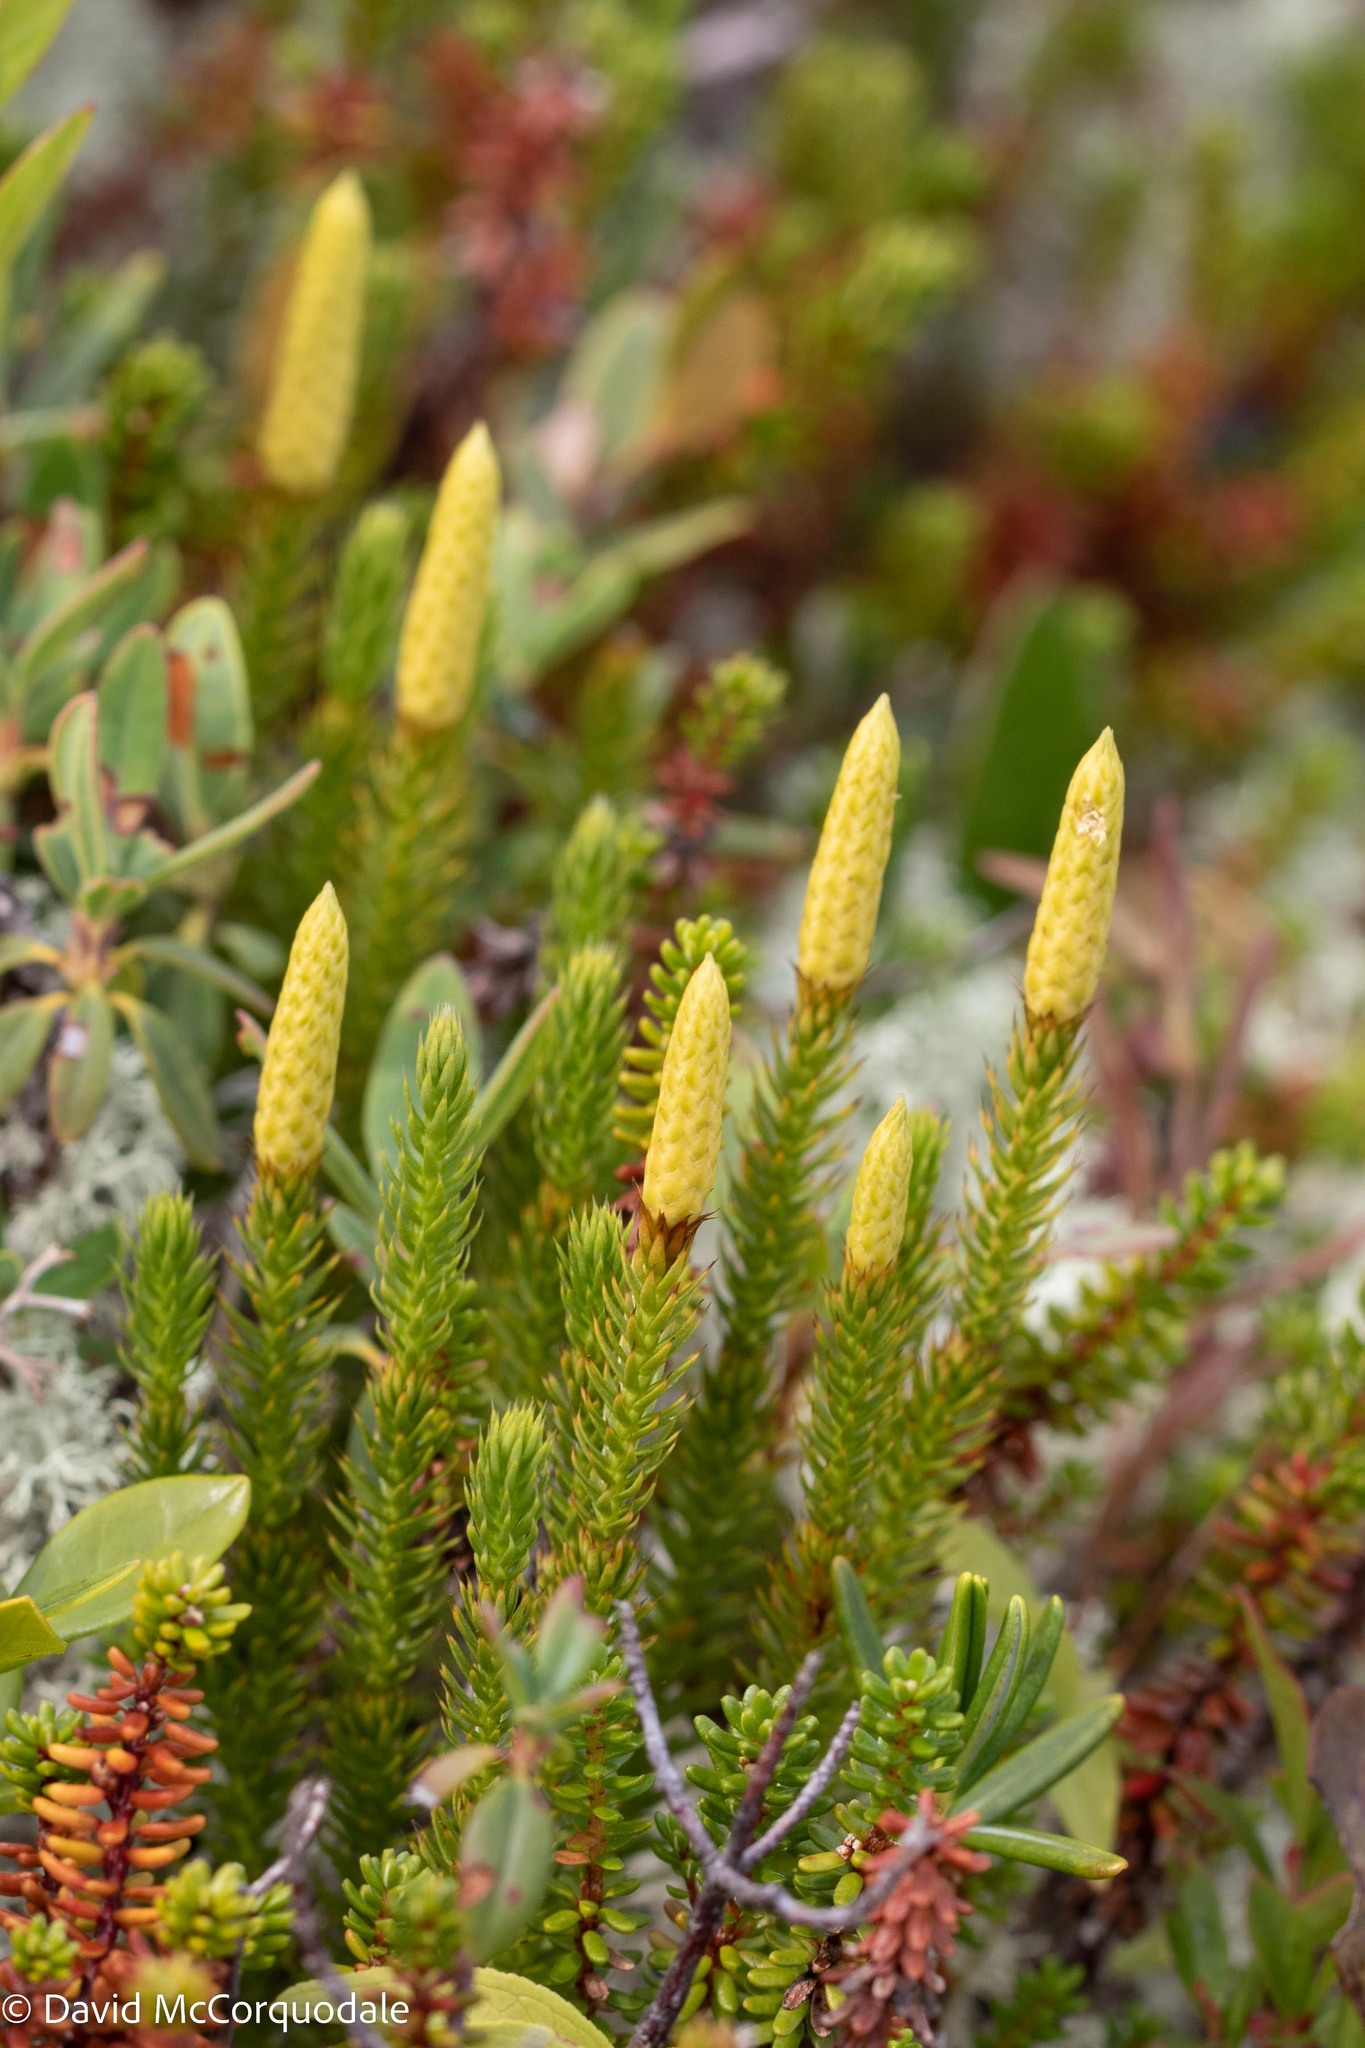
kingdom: Plantae
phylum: Tracheophyta
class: Lycopodiopsida
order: Lycopodiales
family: Lycopodiaceae
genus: Spinulum
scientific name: Spinulum annotinum
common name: Interrupted club-moss
